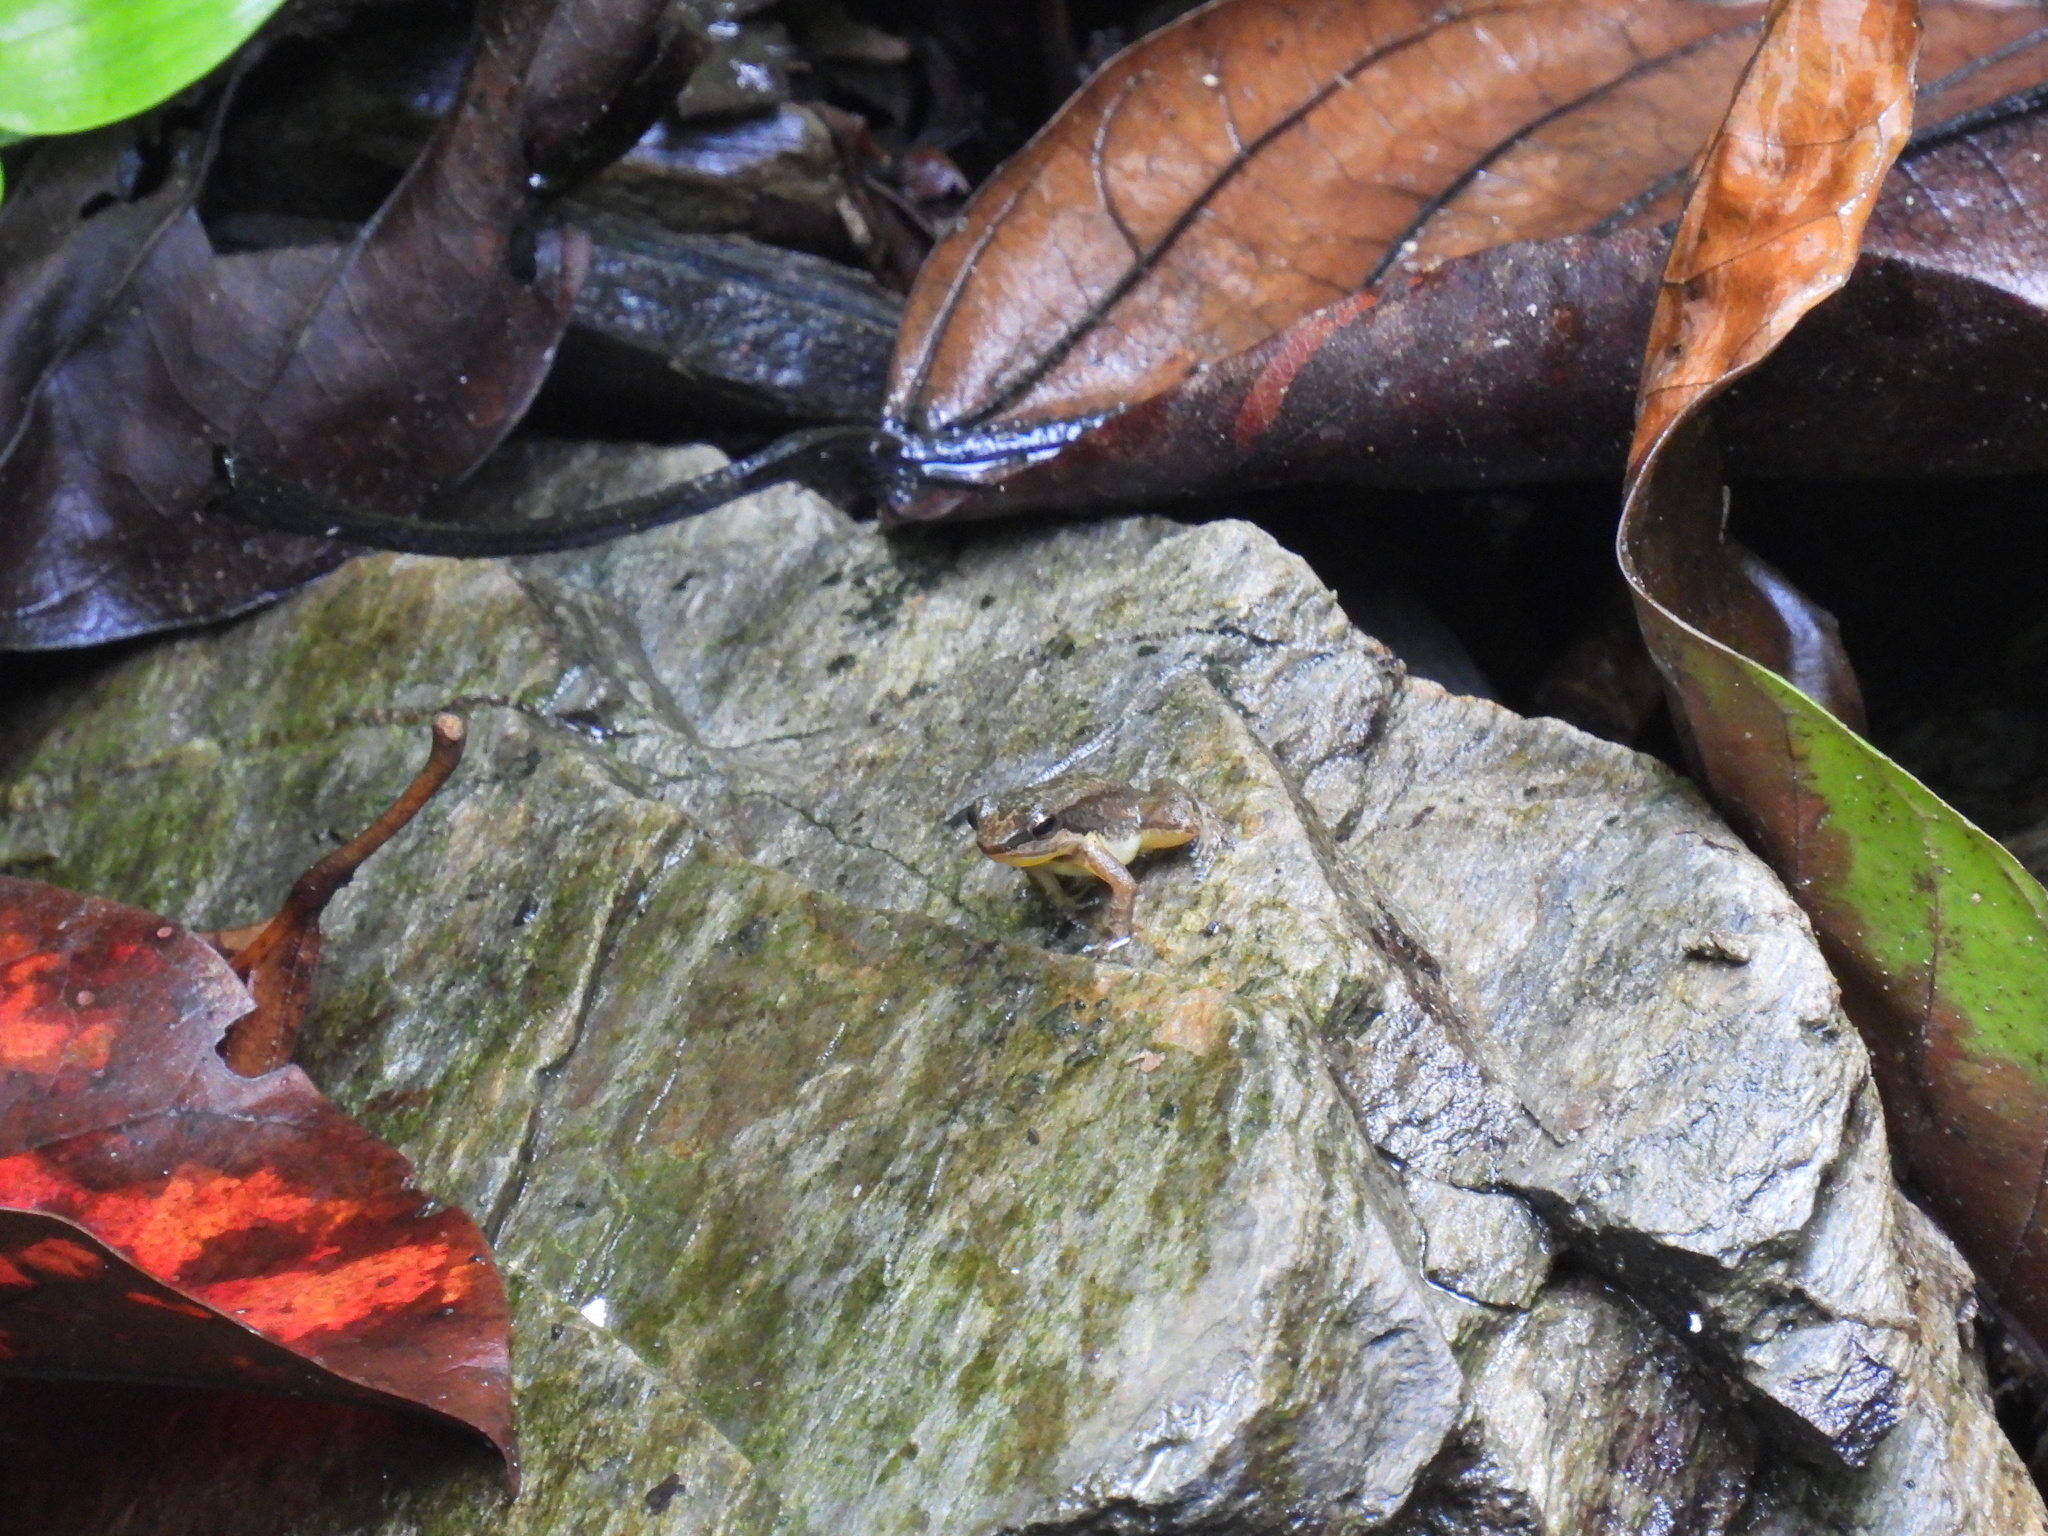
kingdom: Animalia
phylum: Chordata
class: Amphibia
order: Anura
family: Aromobatidae
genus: Mannophryne
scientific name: Mannophryne trinitatis
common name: Trinidad poison frog
